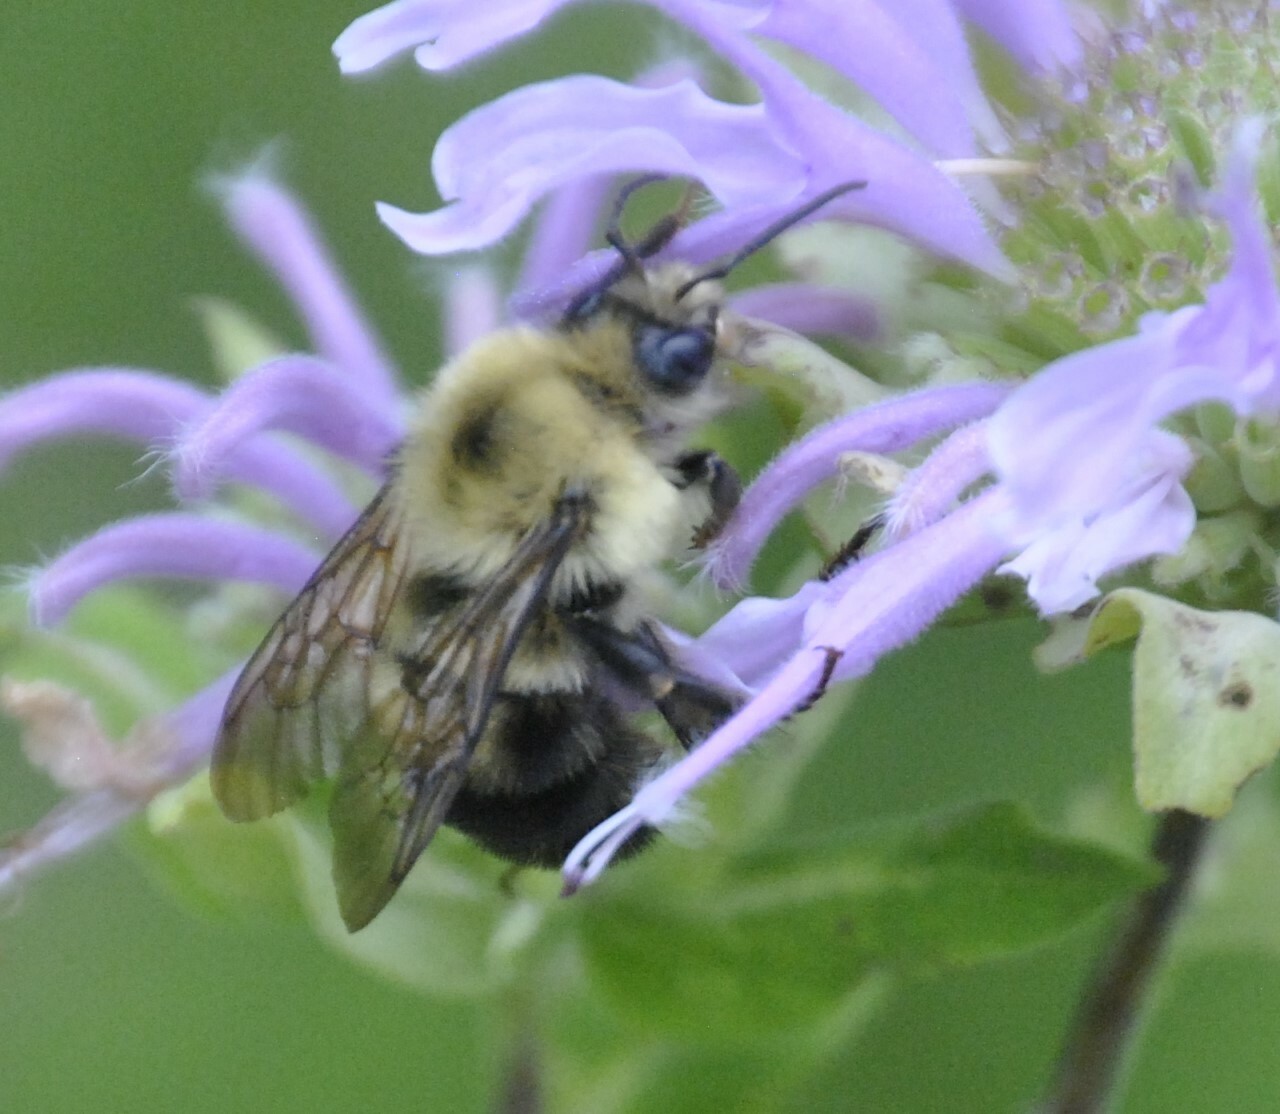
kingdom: Plantae
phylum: Tracheophyta
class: Magnoliopsida
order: Lamiales
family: Lamiaceae
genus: Monarda
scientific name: Monarda fistulosa
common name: Purple beebalm
